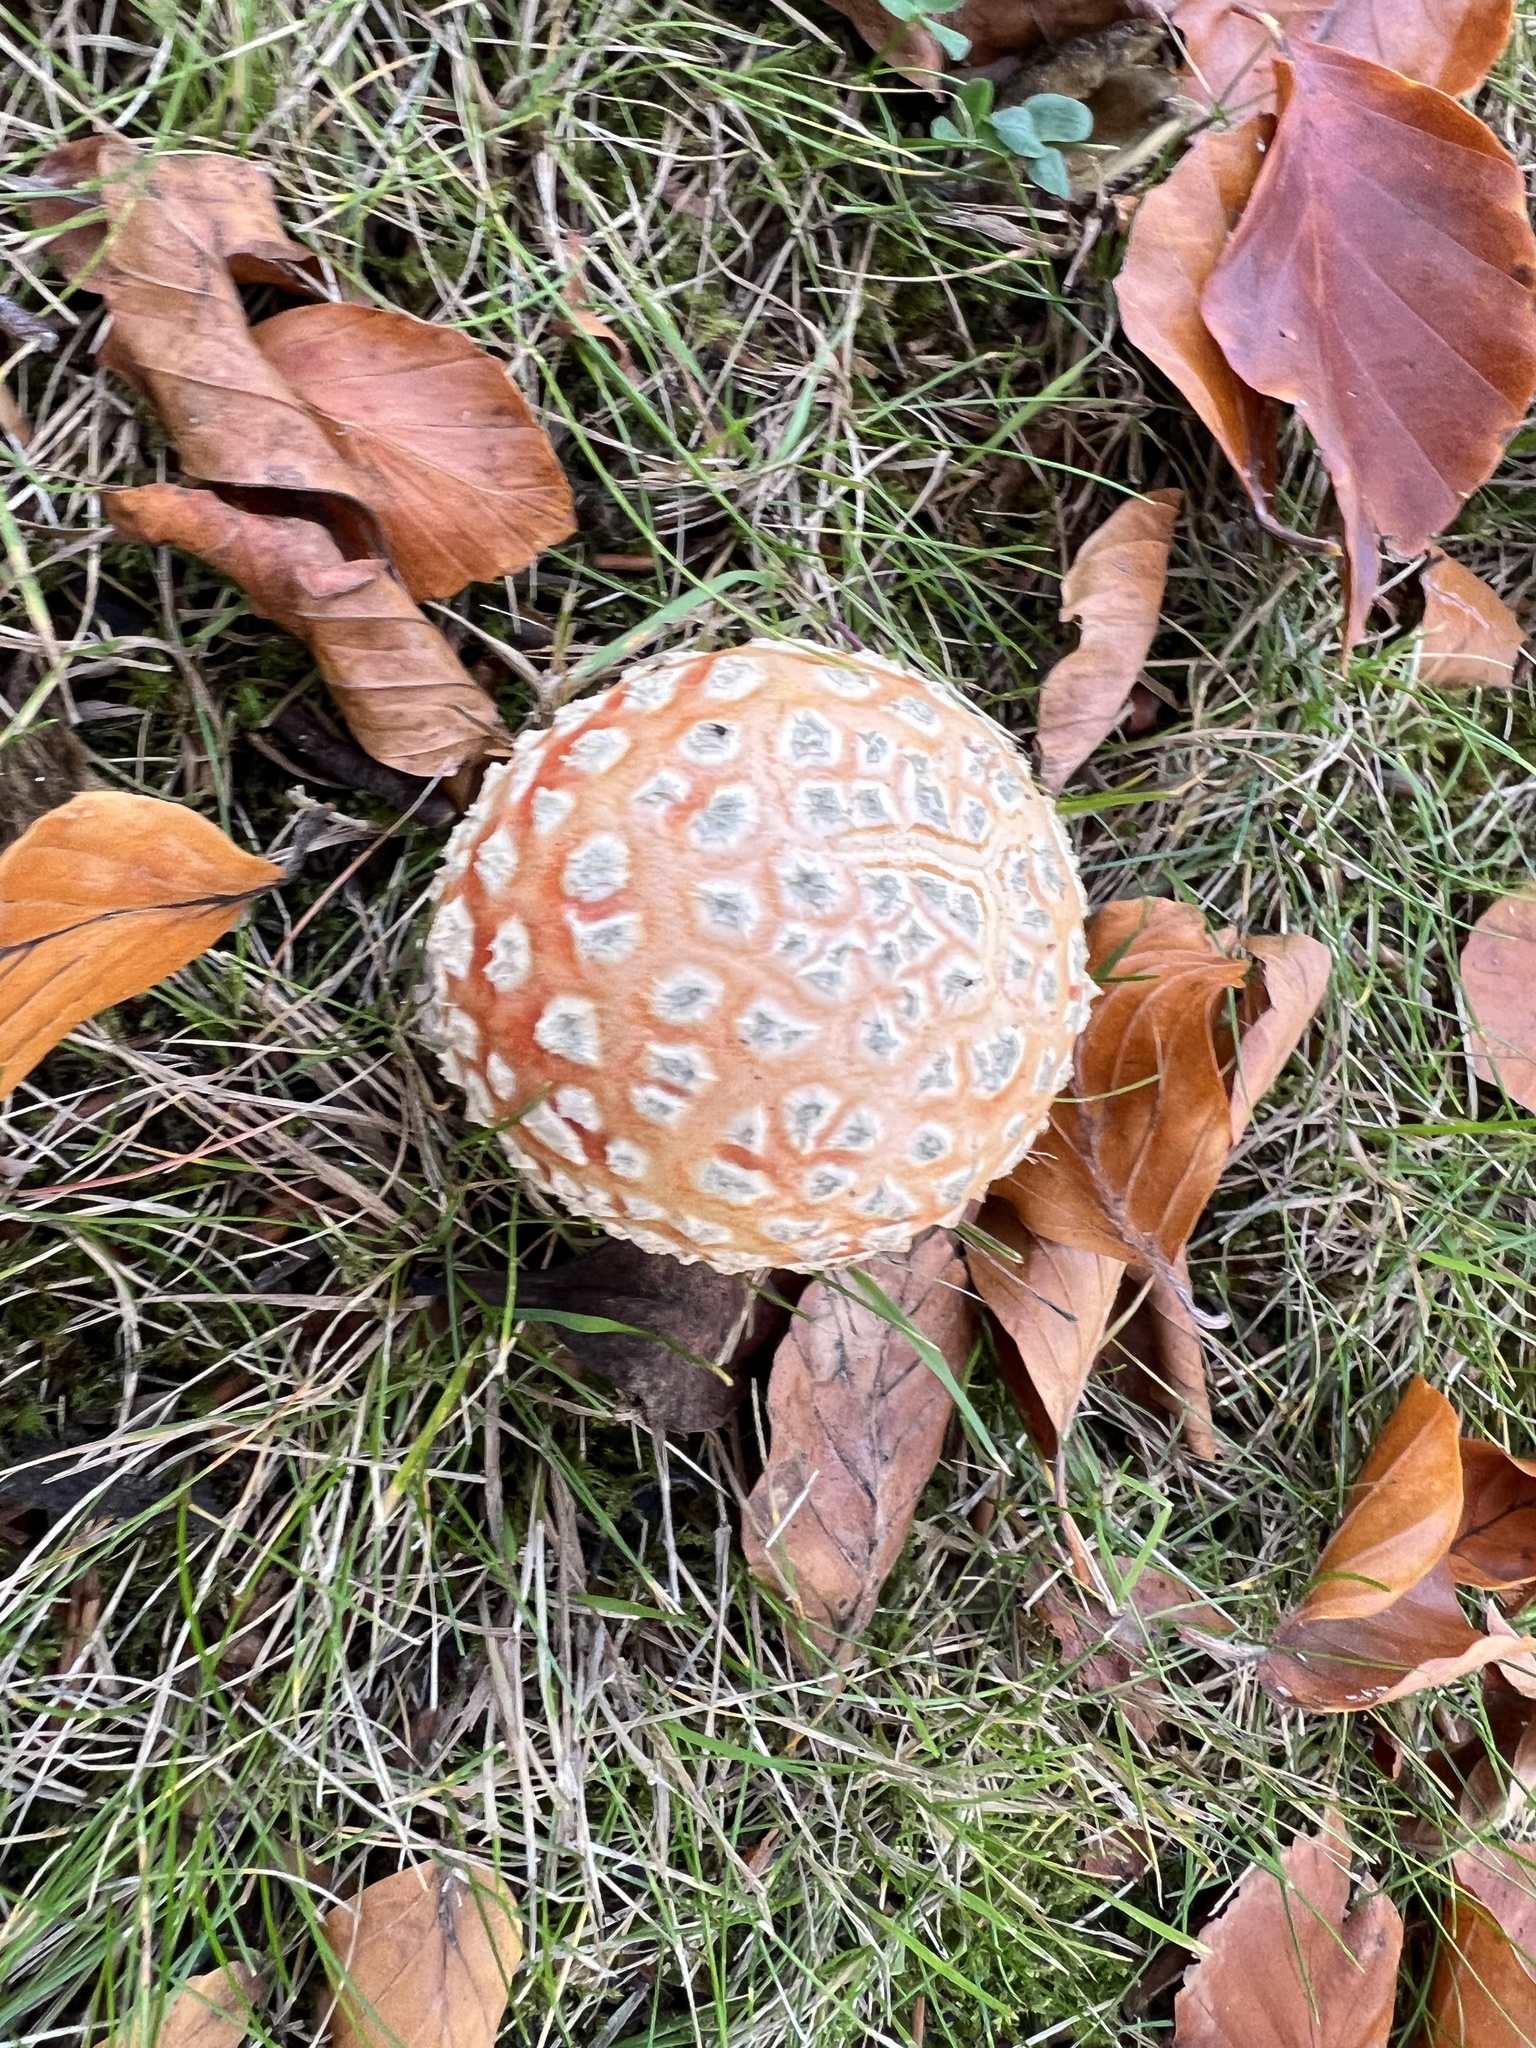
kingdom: Fungi
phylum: Basidiomycota
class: Agaricomycetes
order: Agaricales
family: Amanitaceae
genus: Amanita
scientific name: Amanita muscaria
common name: Fly agaric
